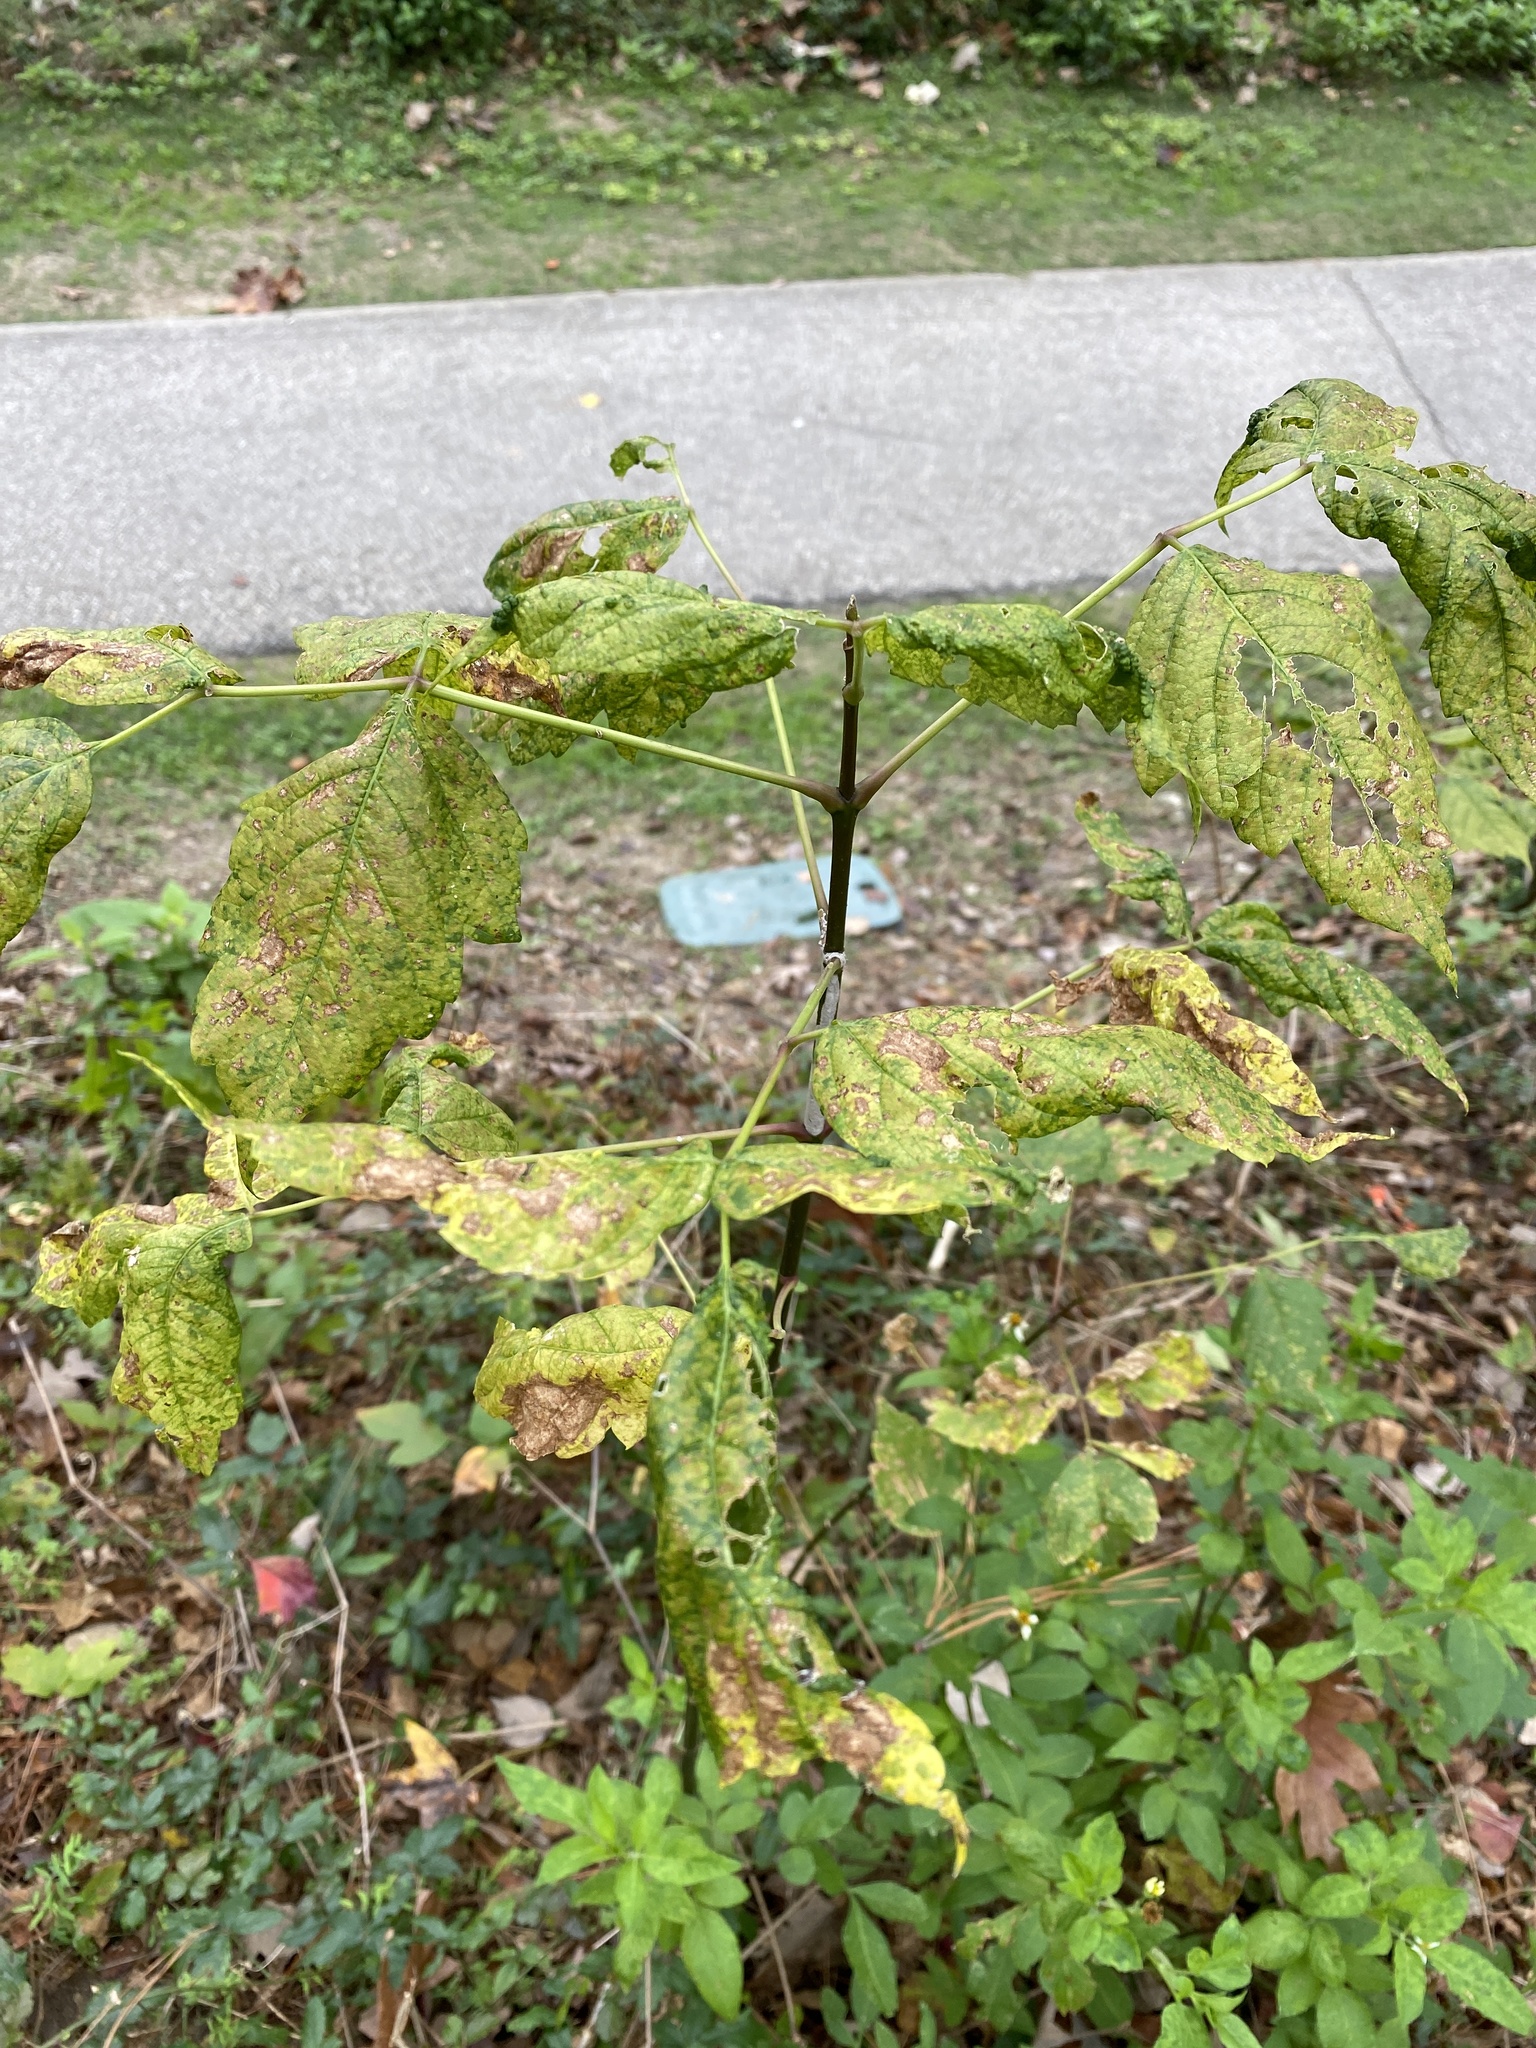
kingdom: Plantae
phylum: Tracheophyta
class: Magnoliopsida
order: Sapindales
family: Sapindaceae
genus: Acer
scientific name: Acer negundo
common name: Ashleaf maple
